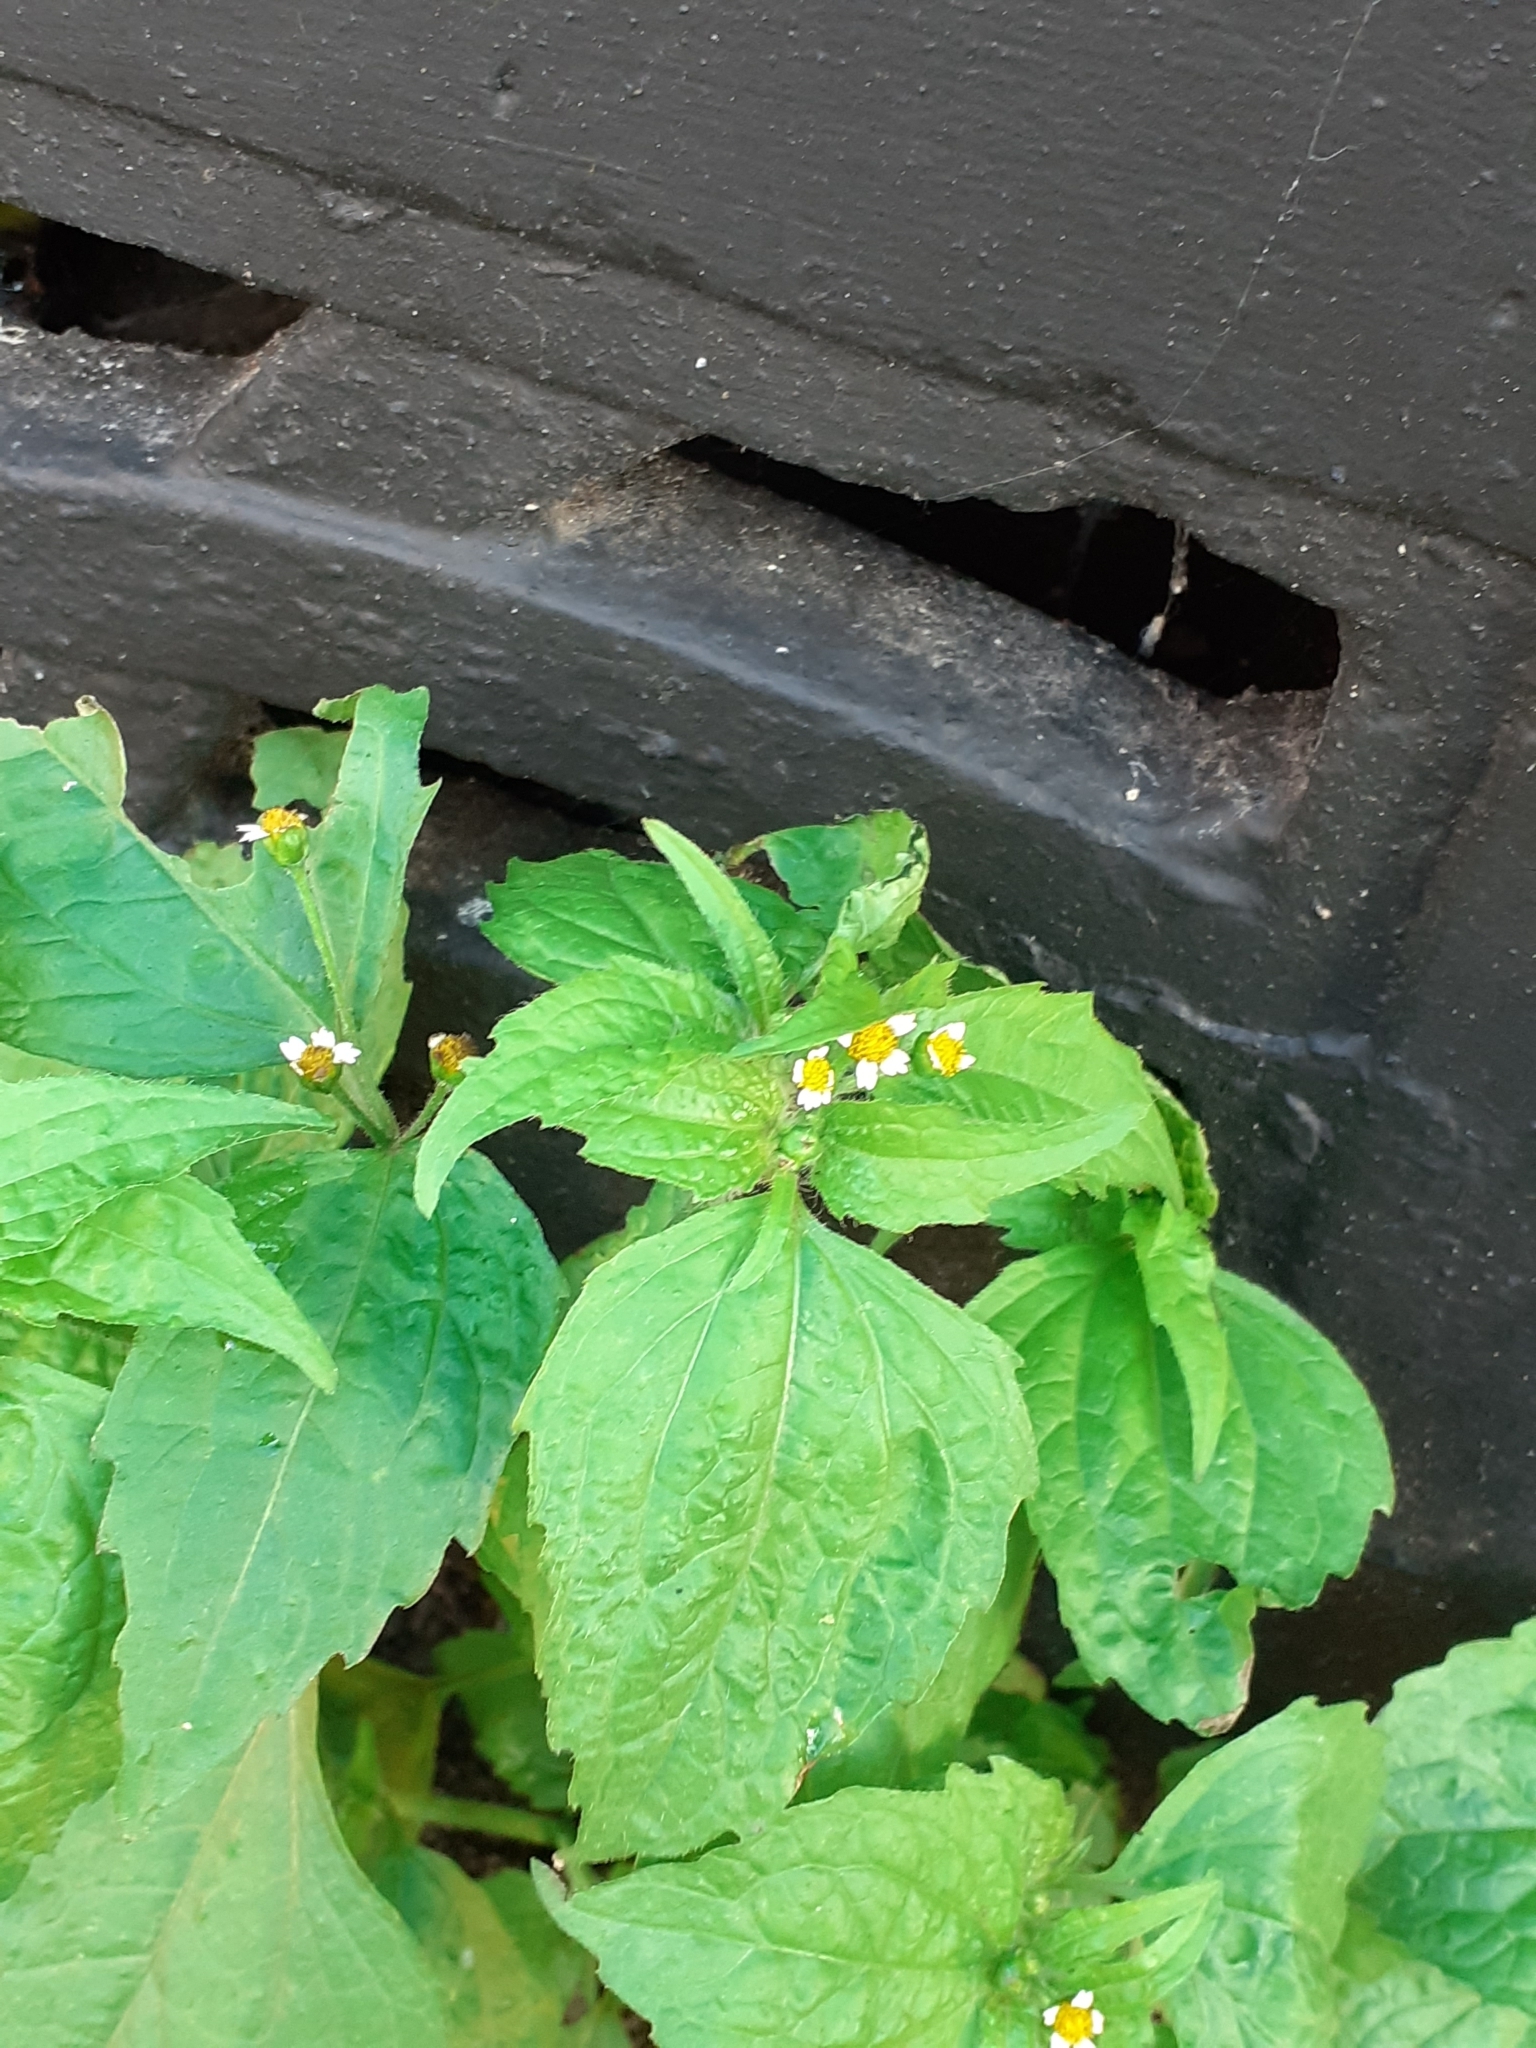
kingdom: Plantae
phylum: Tracheophyta
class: Magnoliopsida
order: Asterales
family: Asteraceae
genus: Galinsoga
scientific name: Galinsoga quadriradiata
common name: Shaggy soldier
